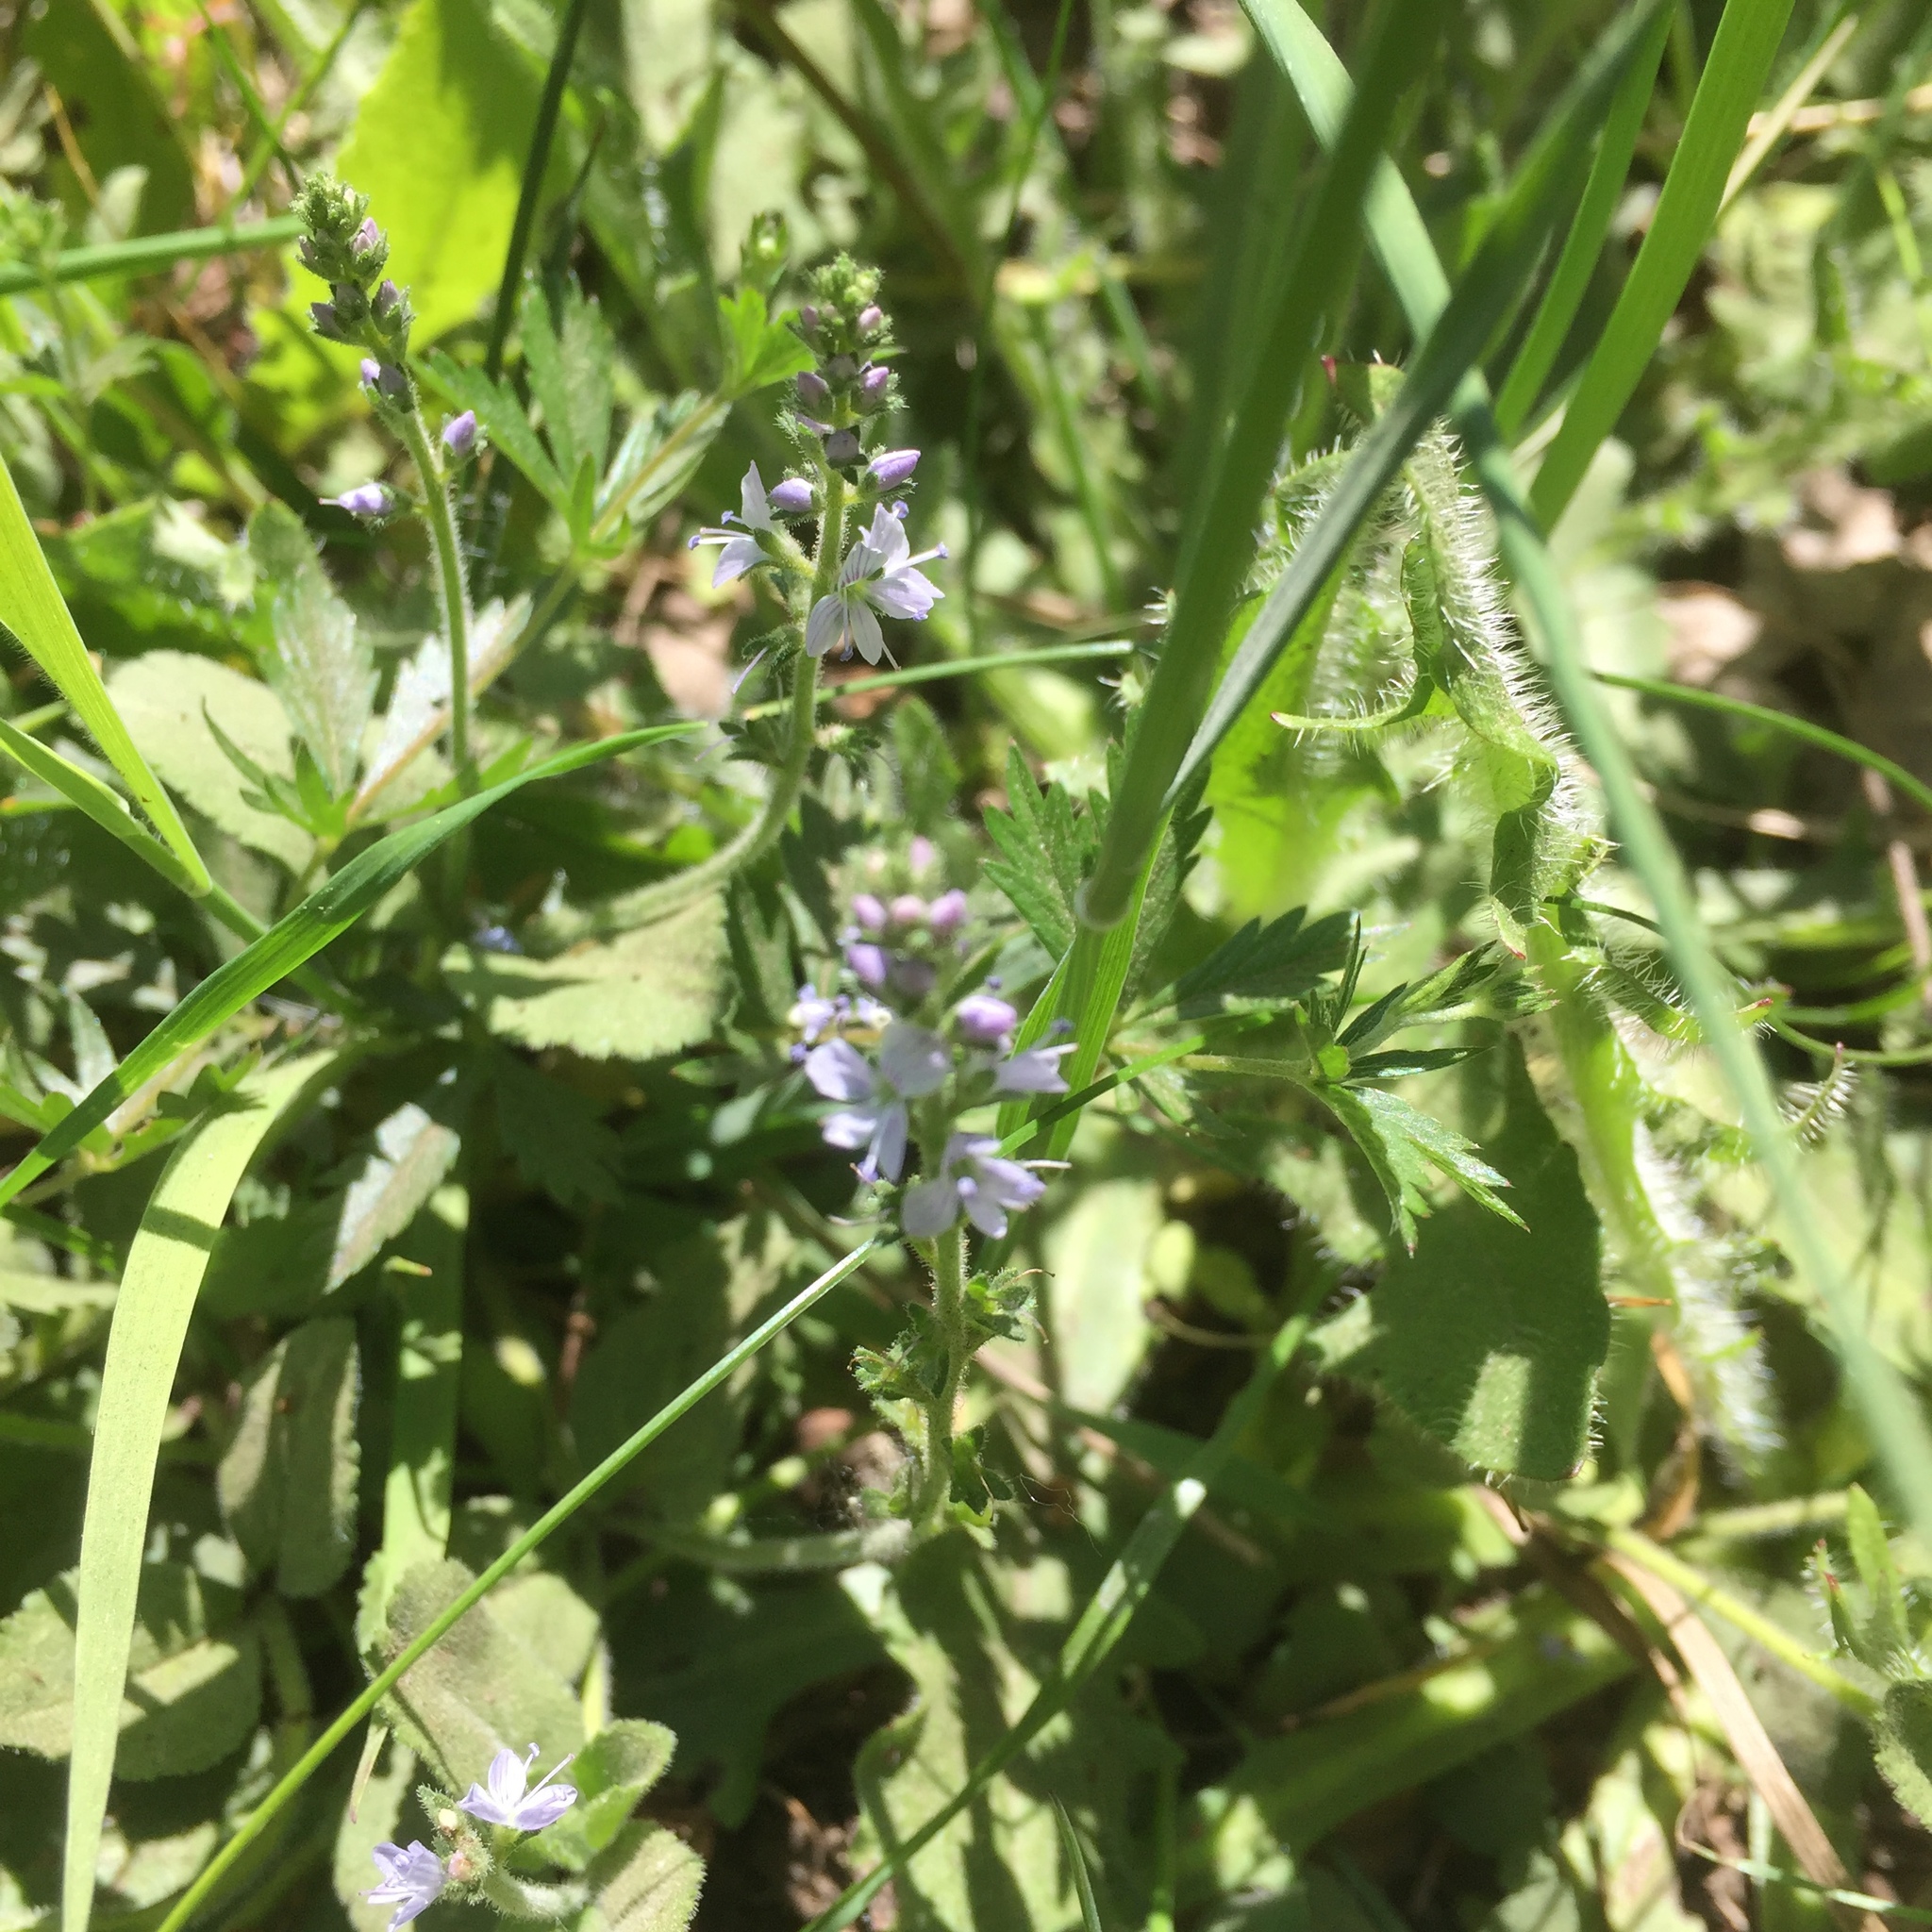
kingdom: Plantae
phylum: Tracheophyta
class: Magnoliopsida
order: Lamiales
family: Plantaginaceae
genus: Veronica
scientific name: Veronica officinalis
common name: Common speedwell
